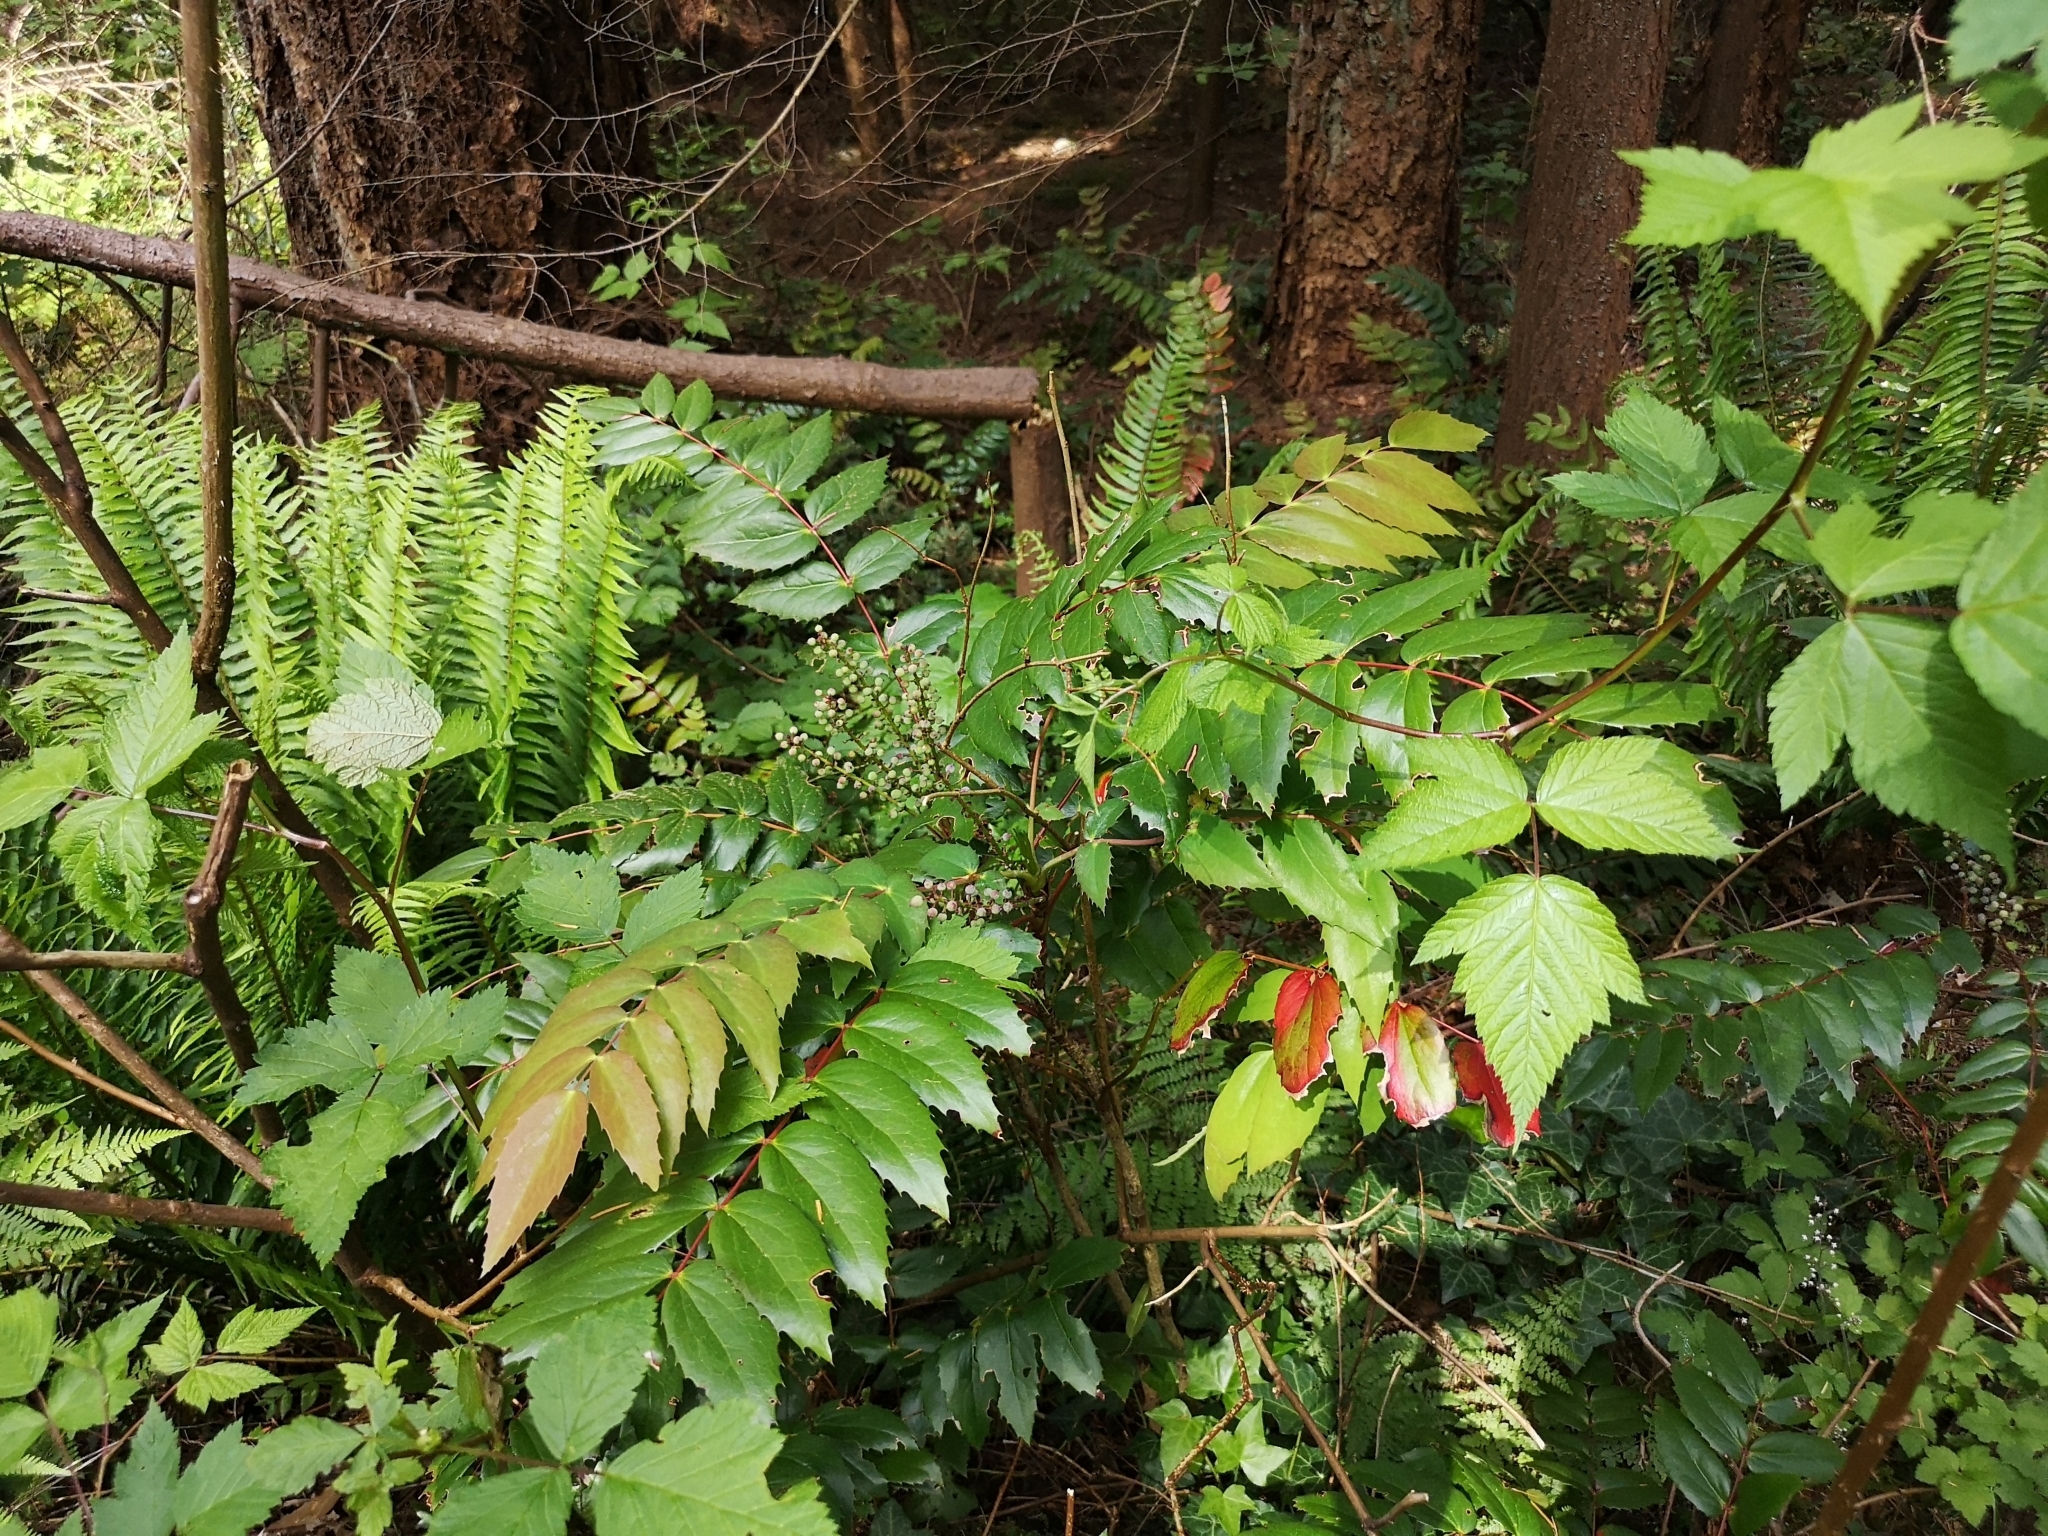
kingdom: Plantae
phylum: Tracheophyta
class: Magnoliopsida
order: Ranunculales
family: Berberidaceae
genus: Mahonia
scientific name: Mahonia nervosa
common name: Cascade oregon-grape
